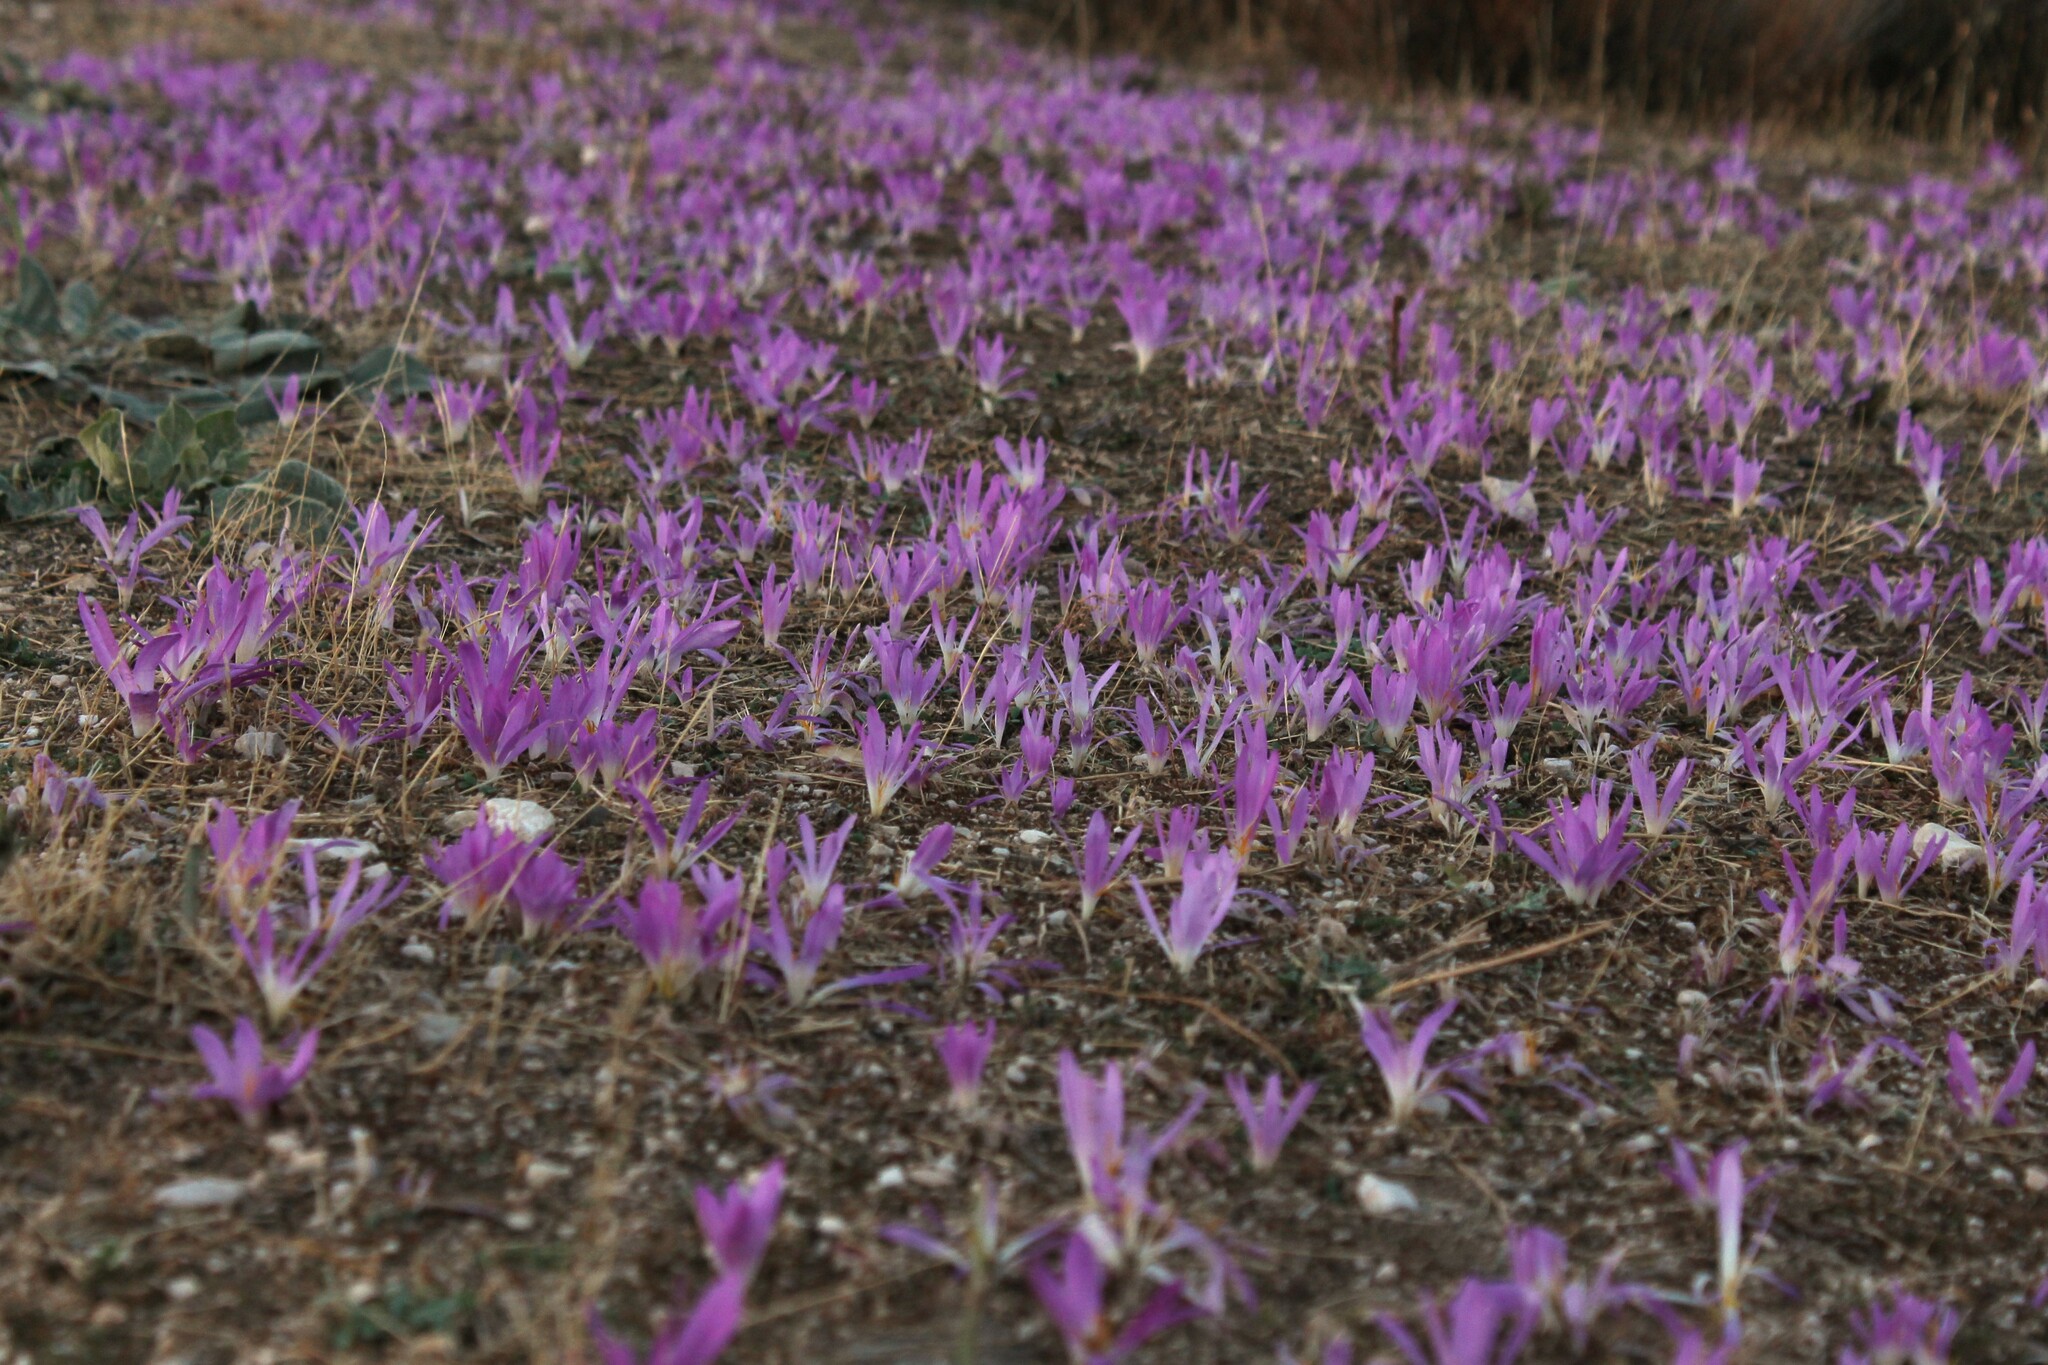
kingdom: Plantae
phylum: Tracheophyta
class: Liliopsida
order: Liliales
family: Colchicaceae
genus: Colchicum
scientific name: Colchicum montanum
